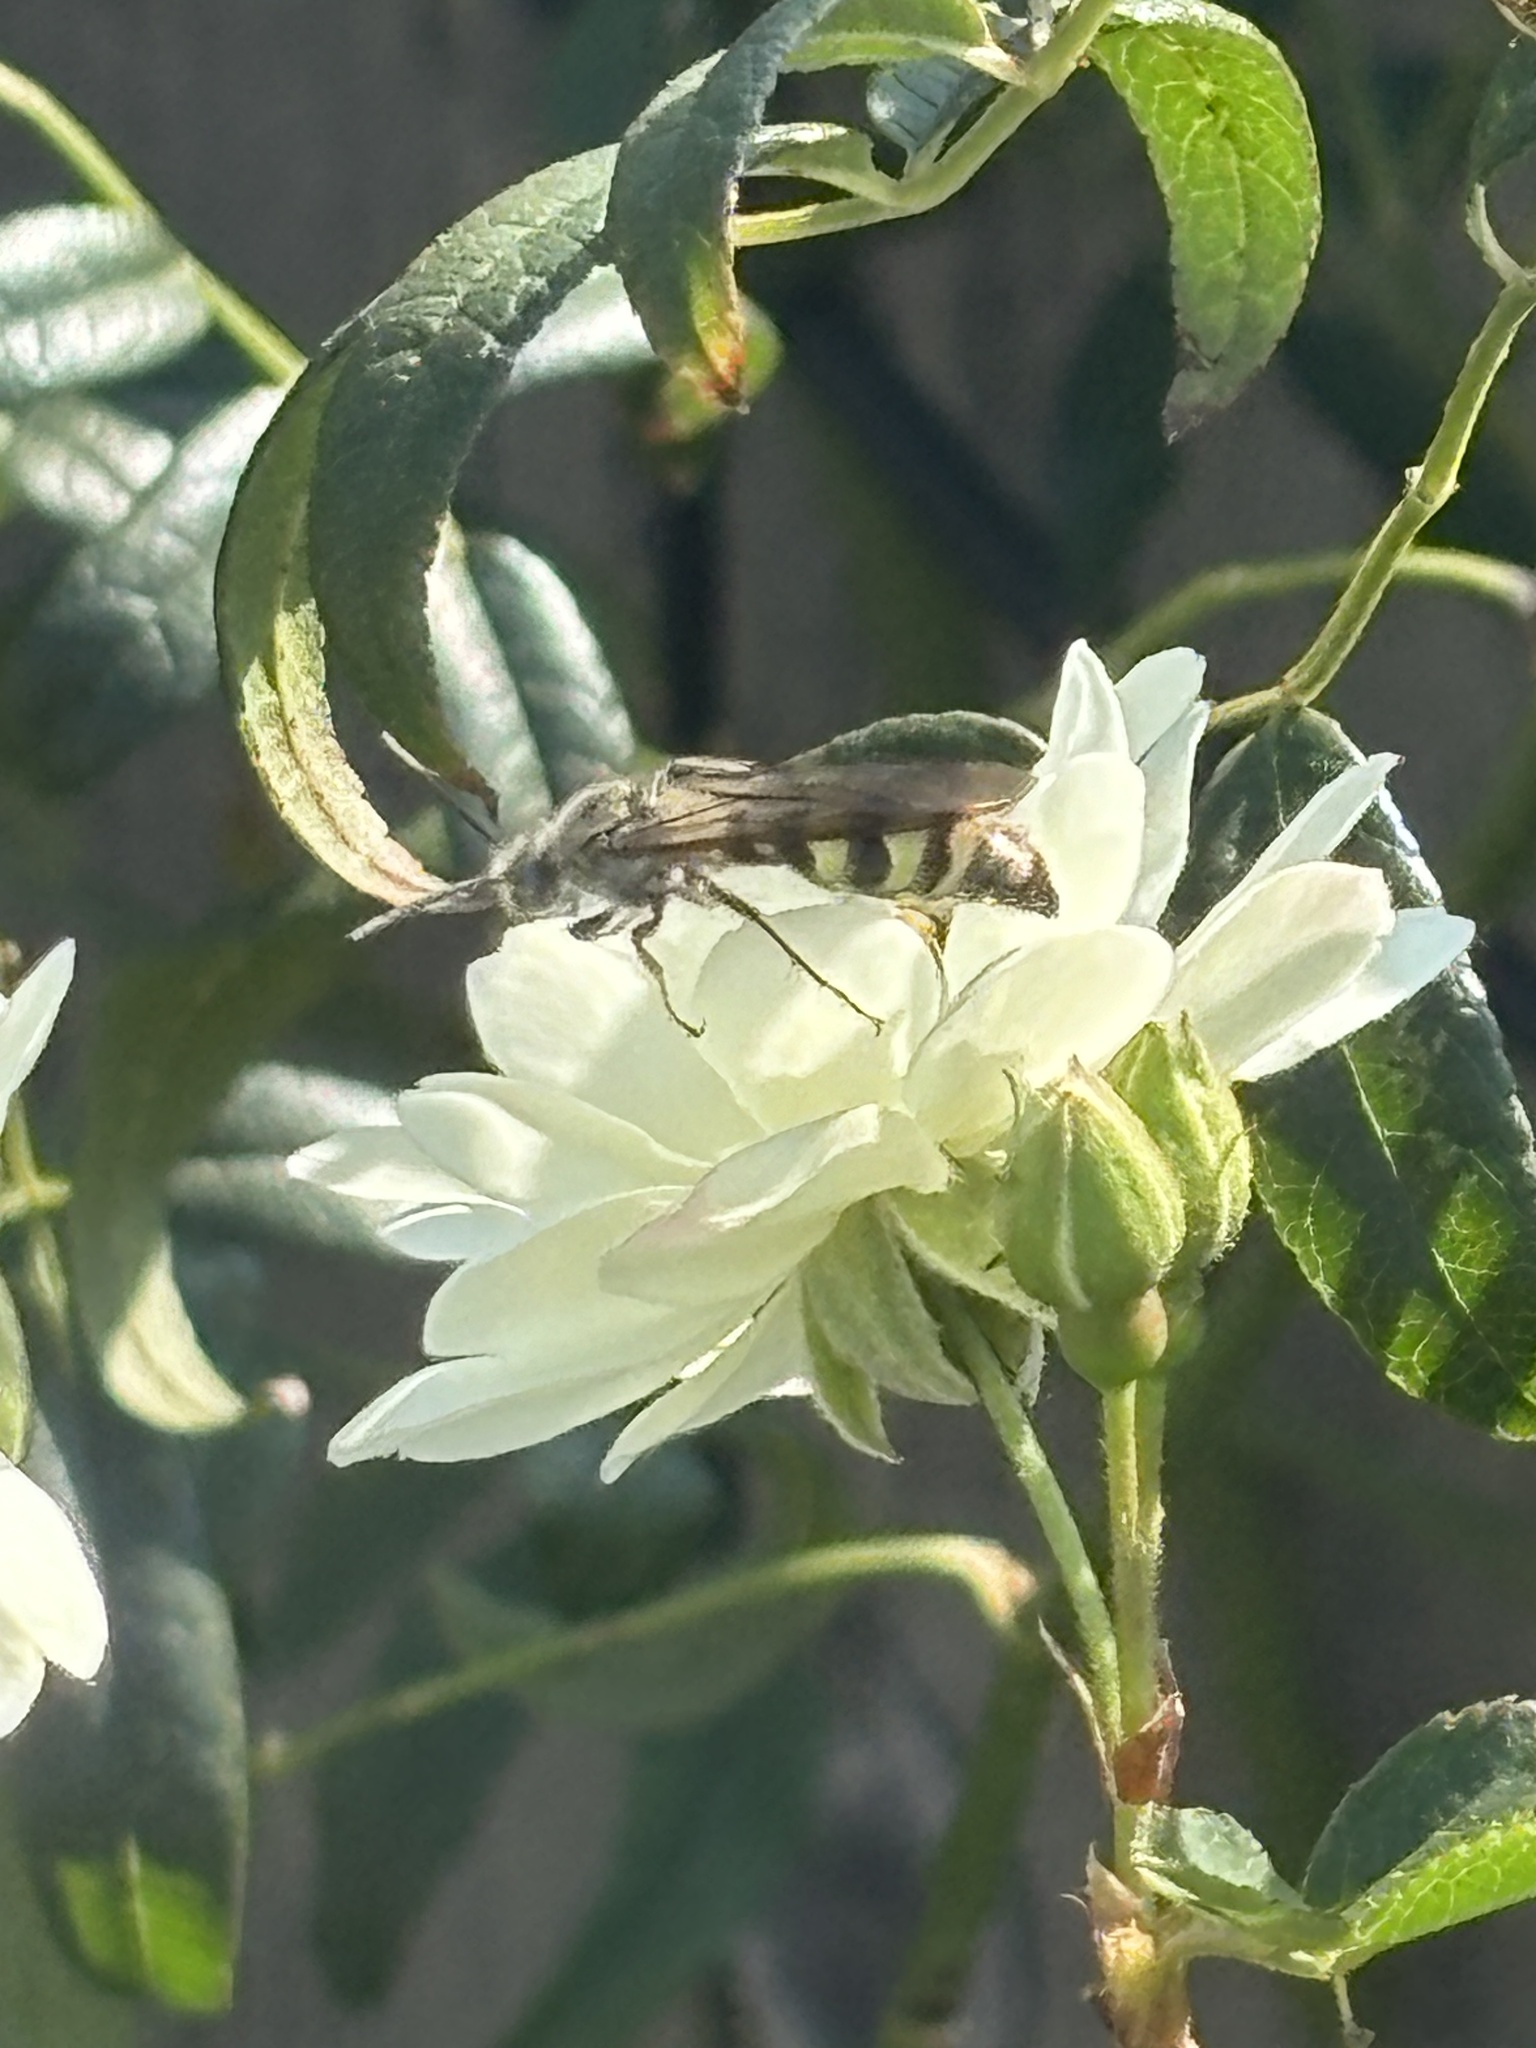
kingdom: Animalia
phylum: Arthropoda
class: Insecta
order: Hymenoptera
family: Scoliidae
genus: Dielis
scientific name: Dielis tolteca
